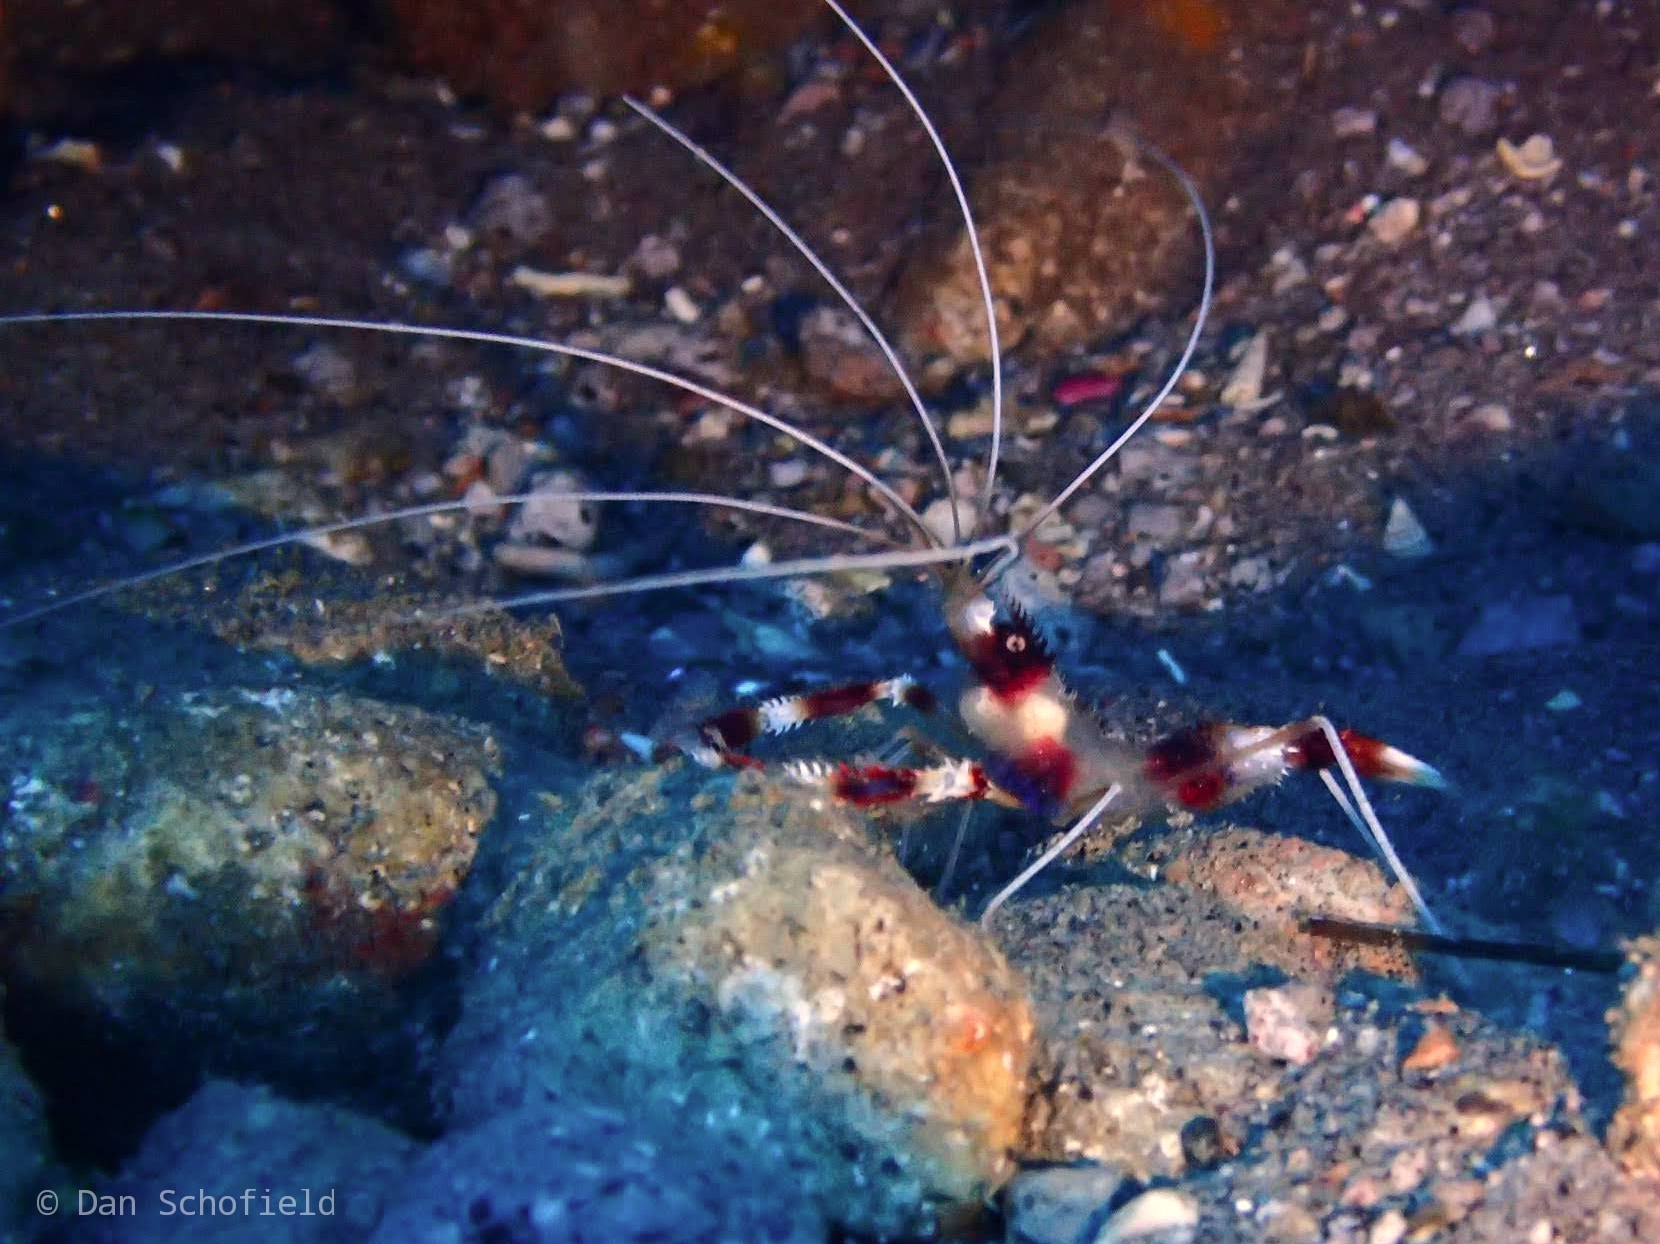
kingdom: Animalia
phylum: Arthropoda
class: Malacostraca
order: Decapoda
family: Stenopodidae
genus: Stenopus
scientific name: Stenopus hispidus
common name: Banded coral shrimp
